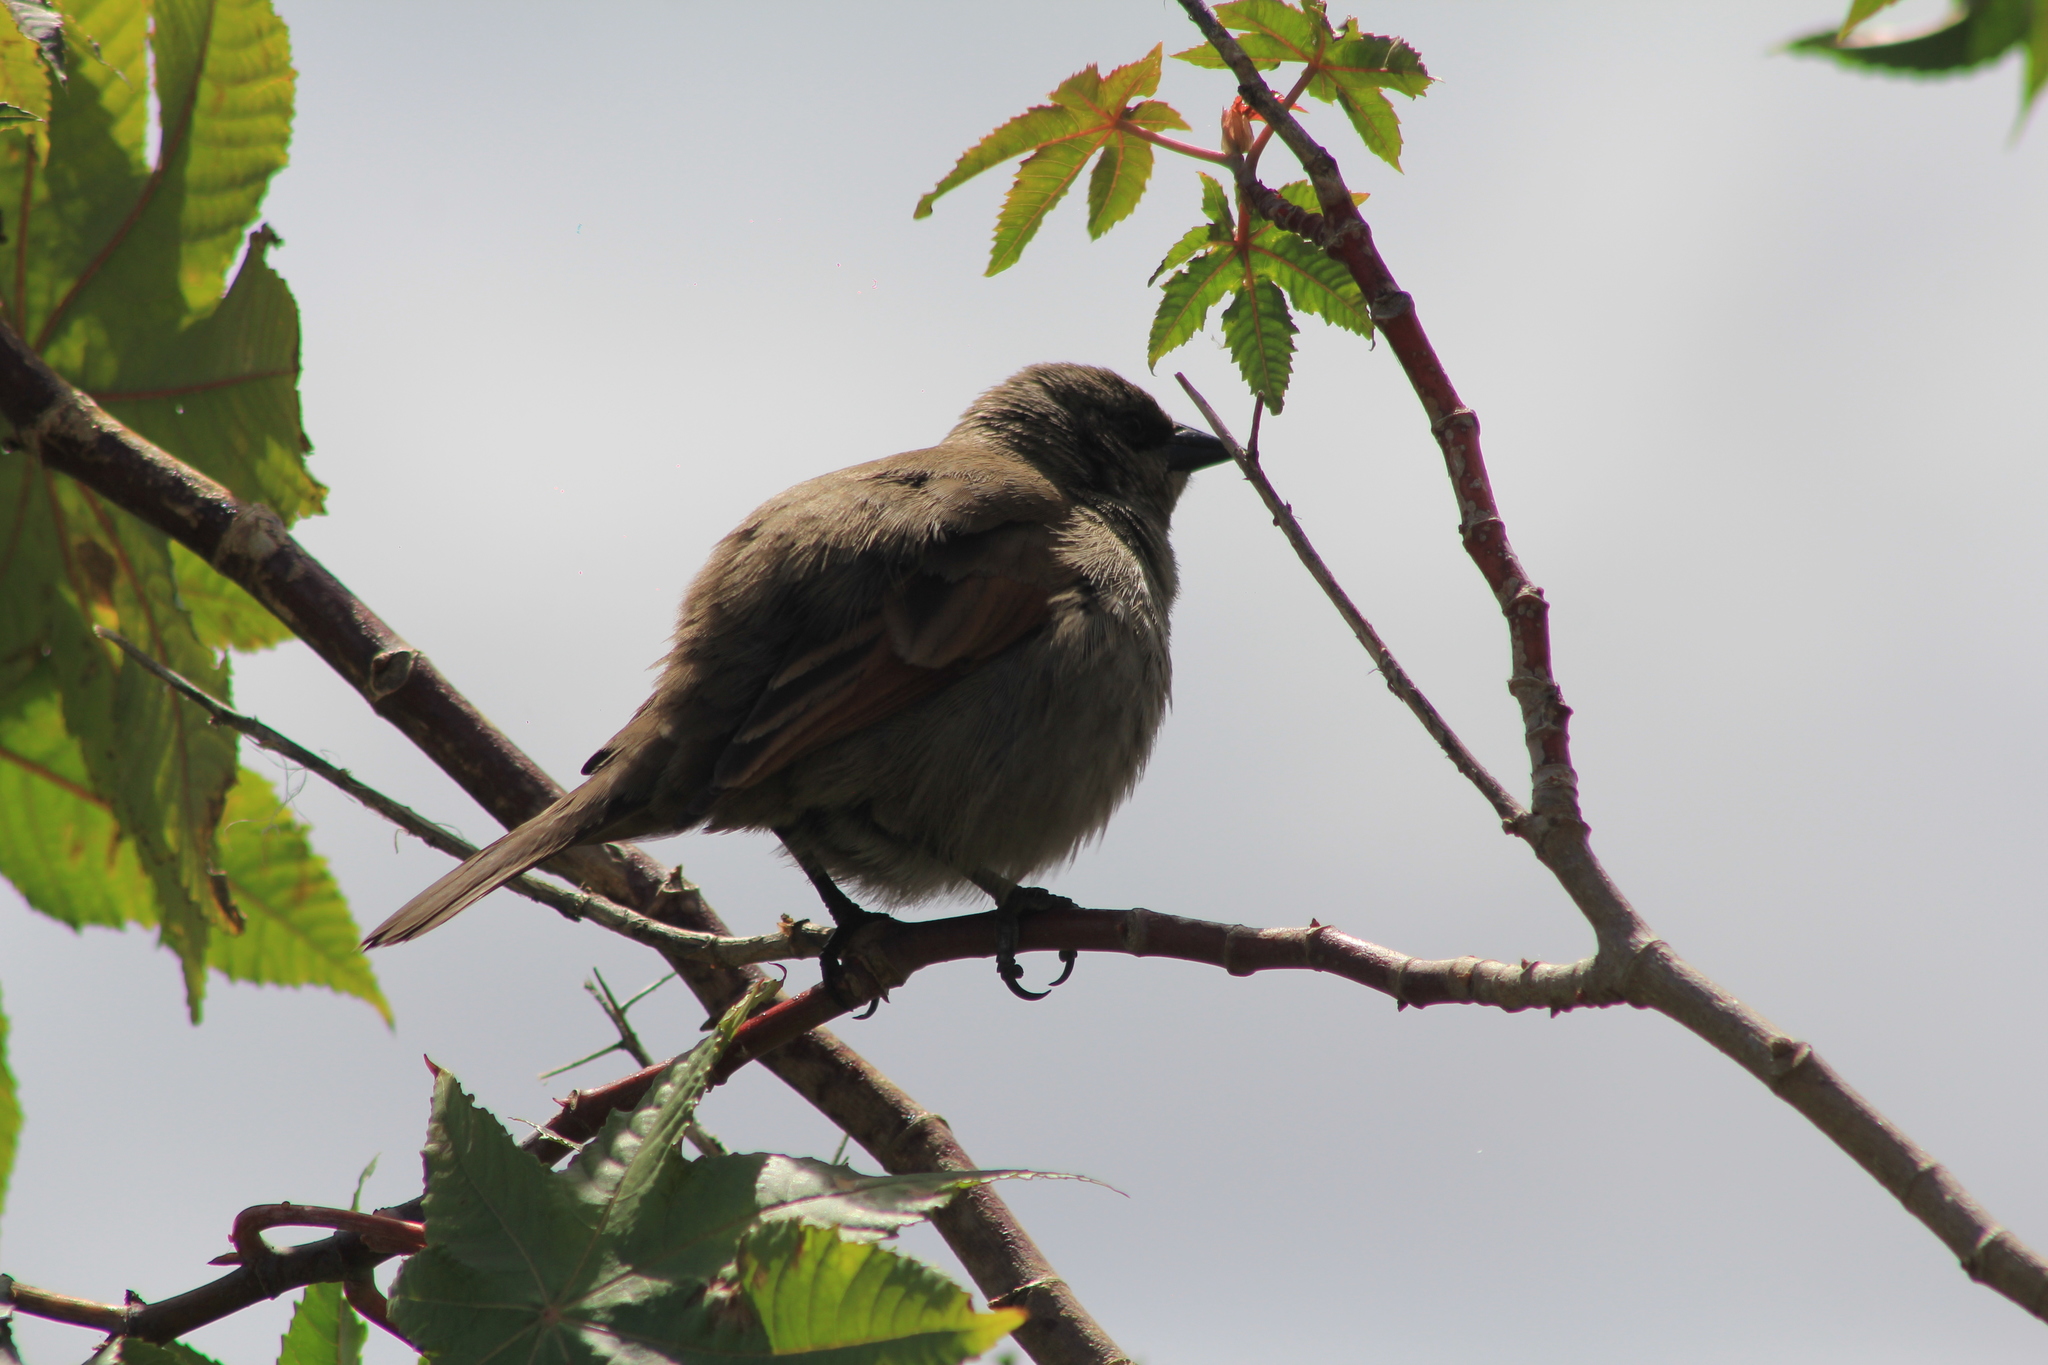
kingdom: Animalia
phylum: Chordata
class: Aves
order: Passeriformes
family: Icteridae
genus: Agelaioides
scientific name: Agelaioides badius
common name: Baywing
